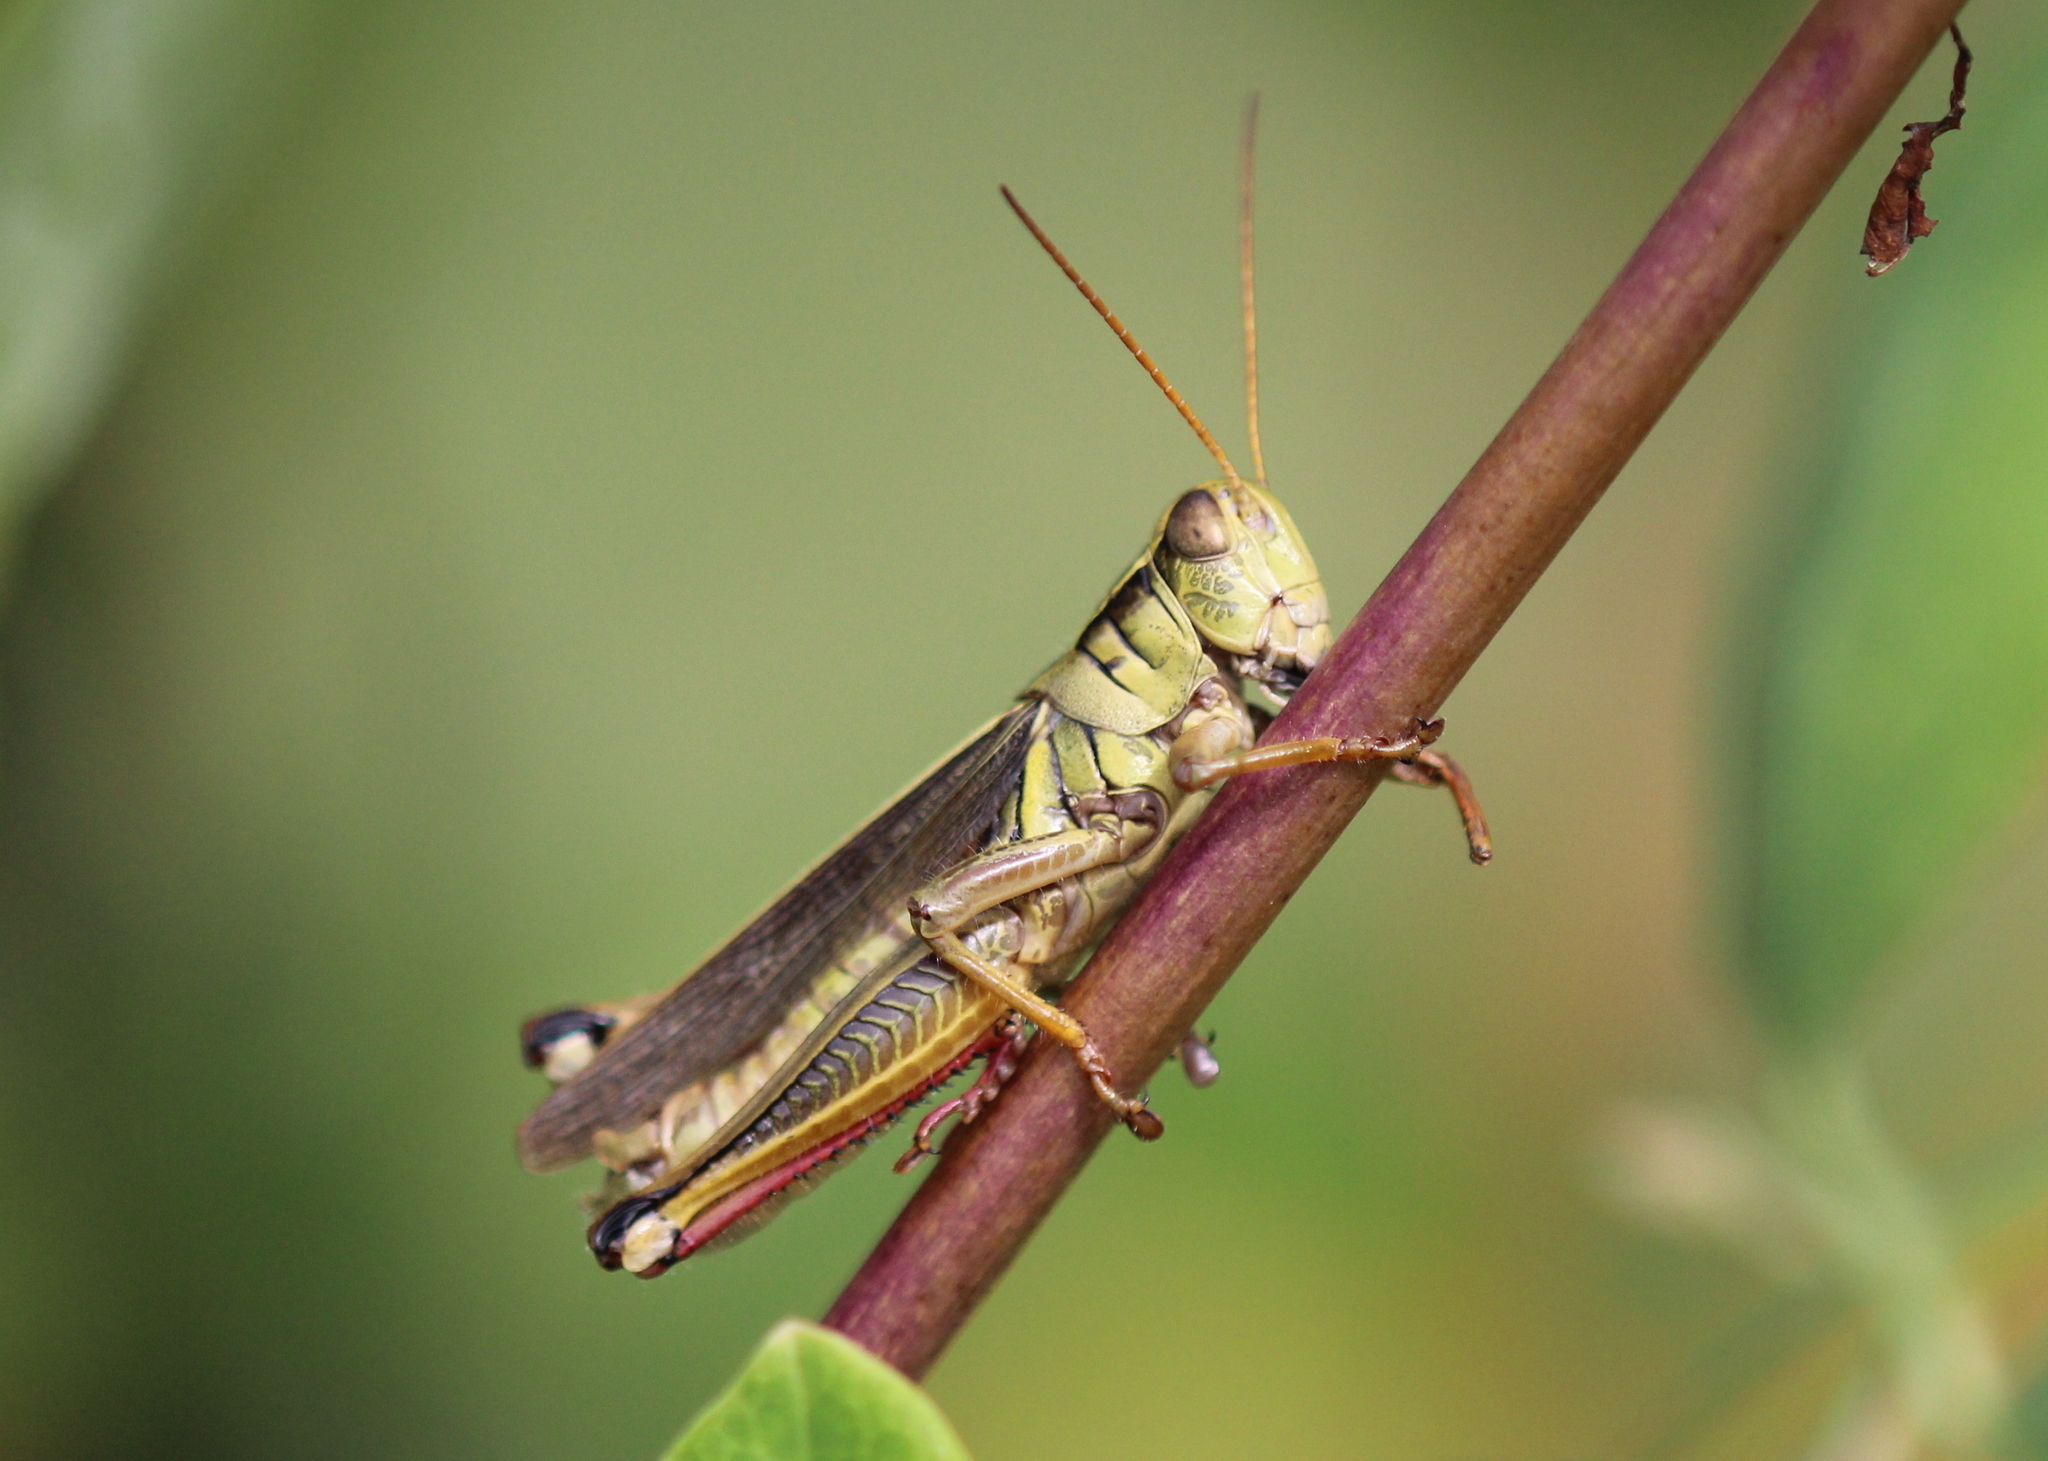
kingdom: Animalia
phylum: Arthropoda
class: Insecta
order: Orthoptera
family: Acrididae
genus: Melanoplus
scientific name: Melanoplus bivittatus
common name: Two-striped grasshopper
